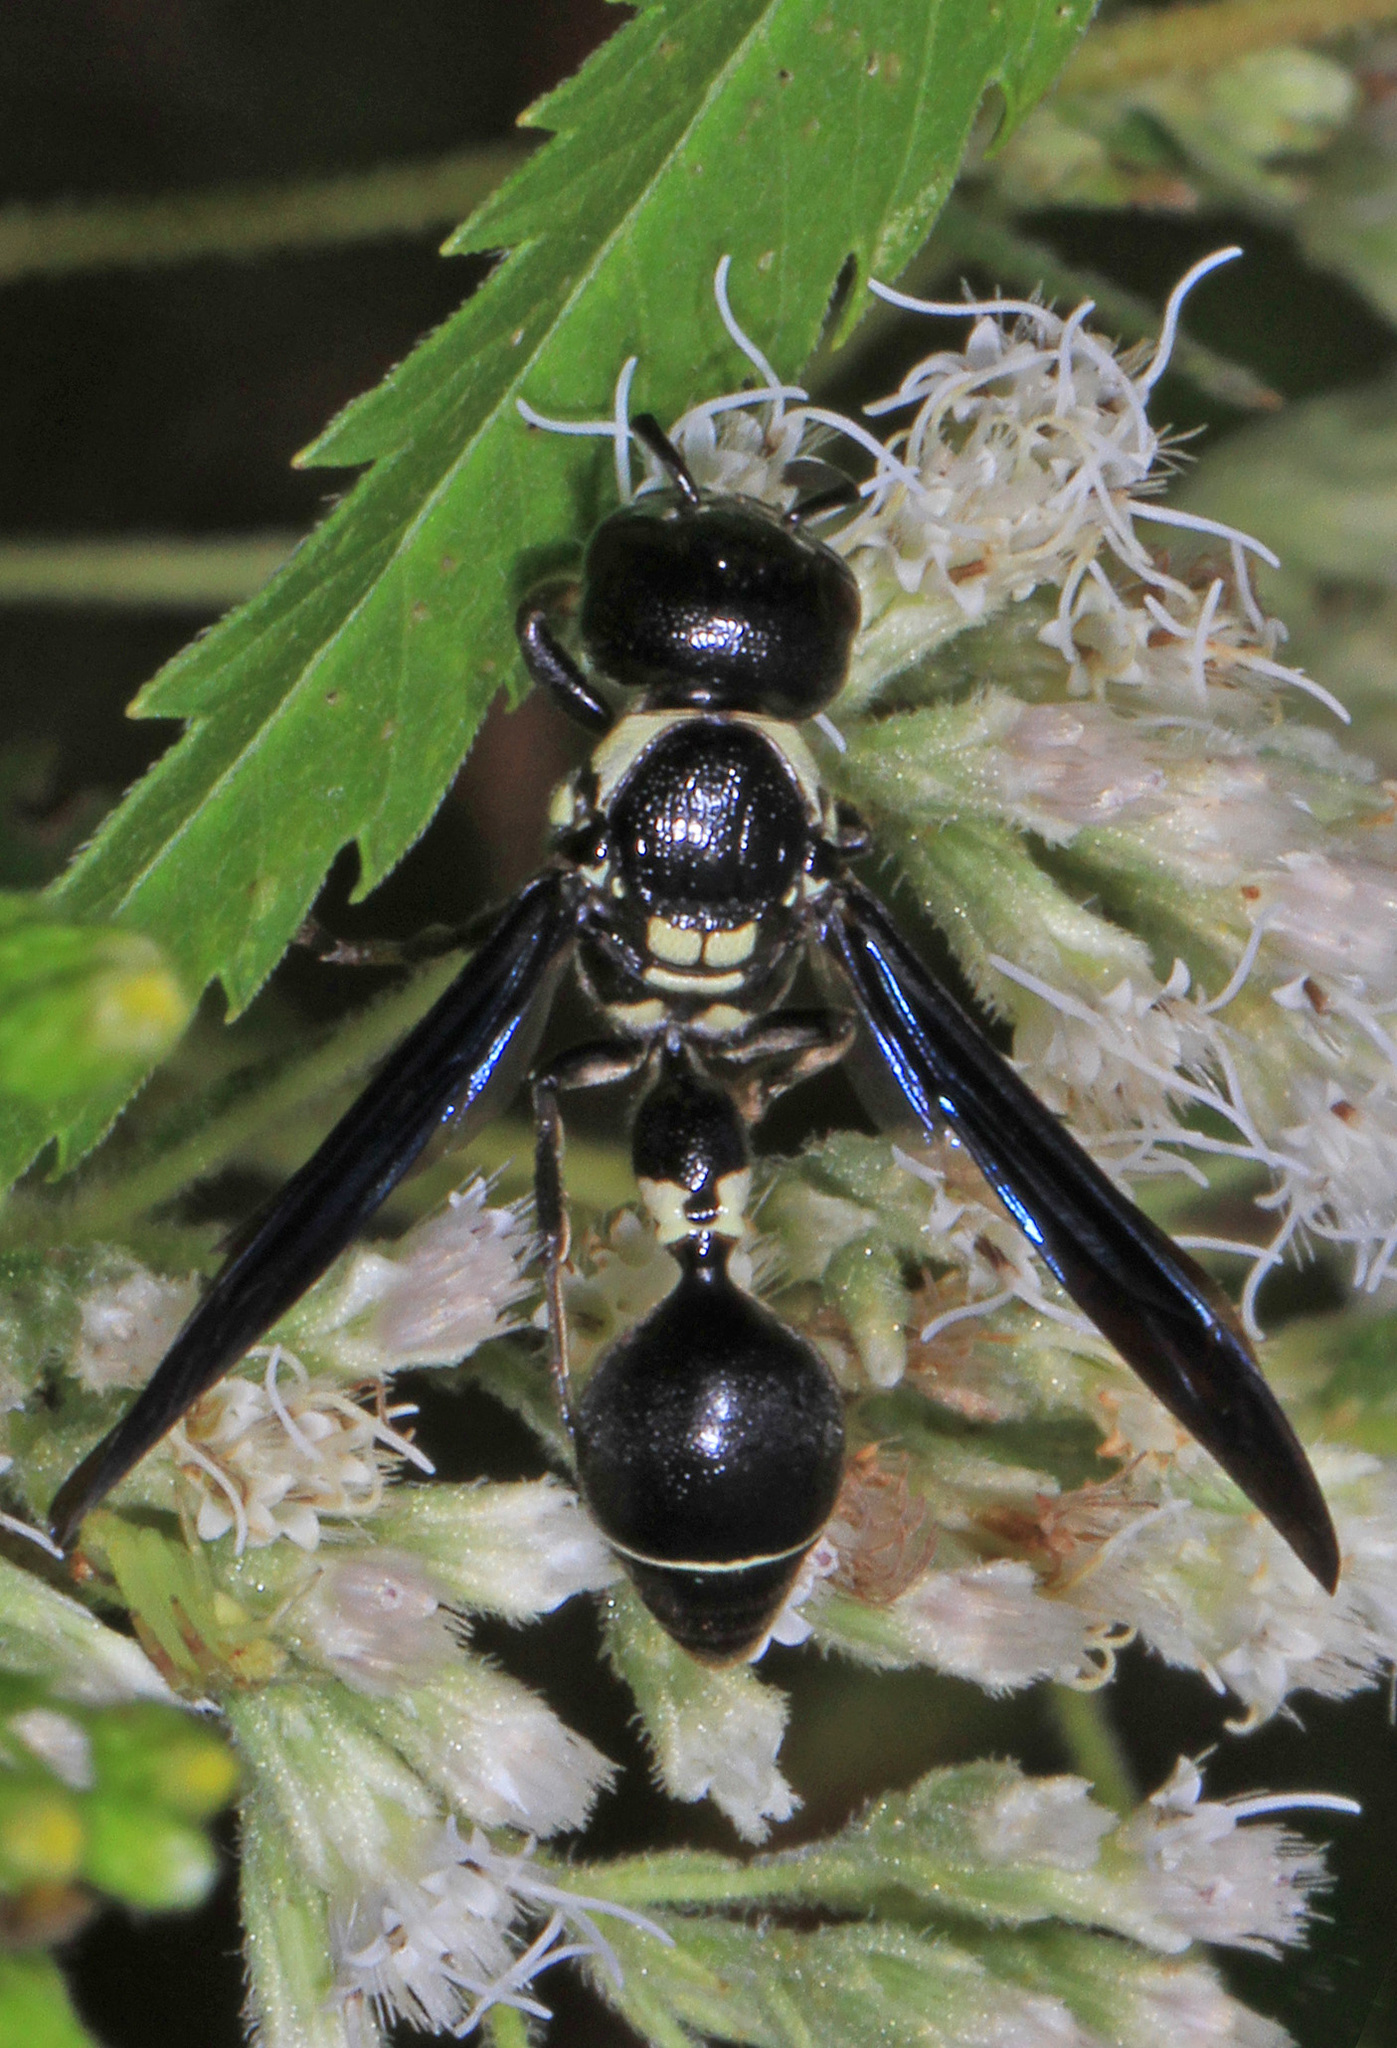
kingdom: Animalia
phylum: Arthropoda
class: Insecta
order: Hymenoptera
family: Eumenidae
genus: Zethus
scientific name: Zethus spinipes
